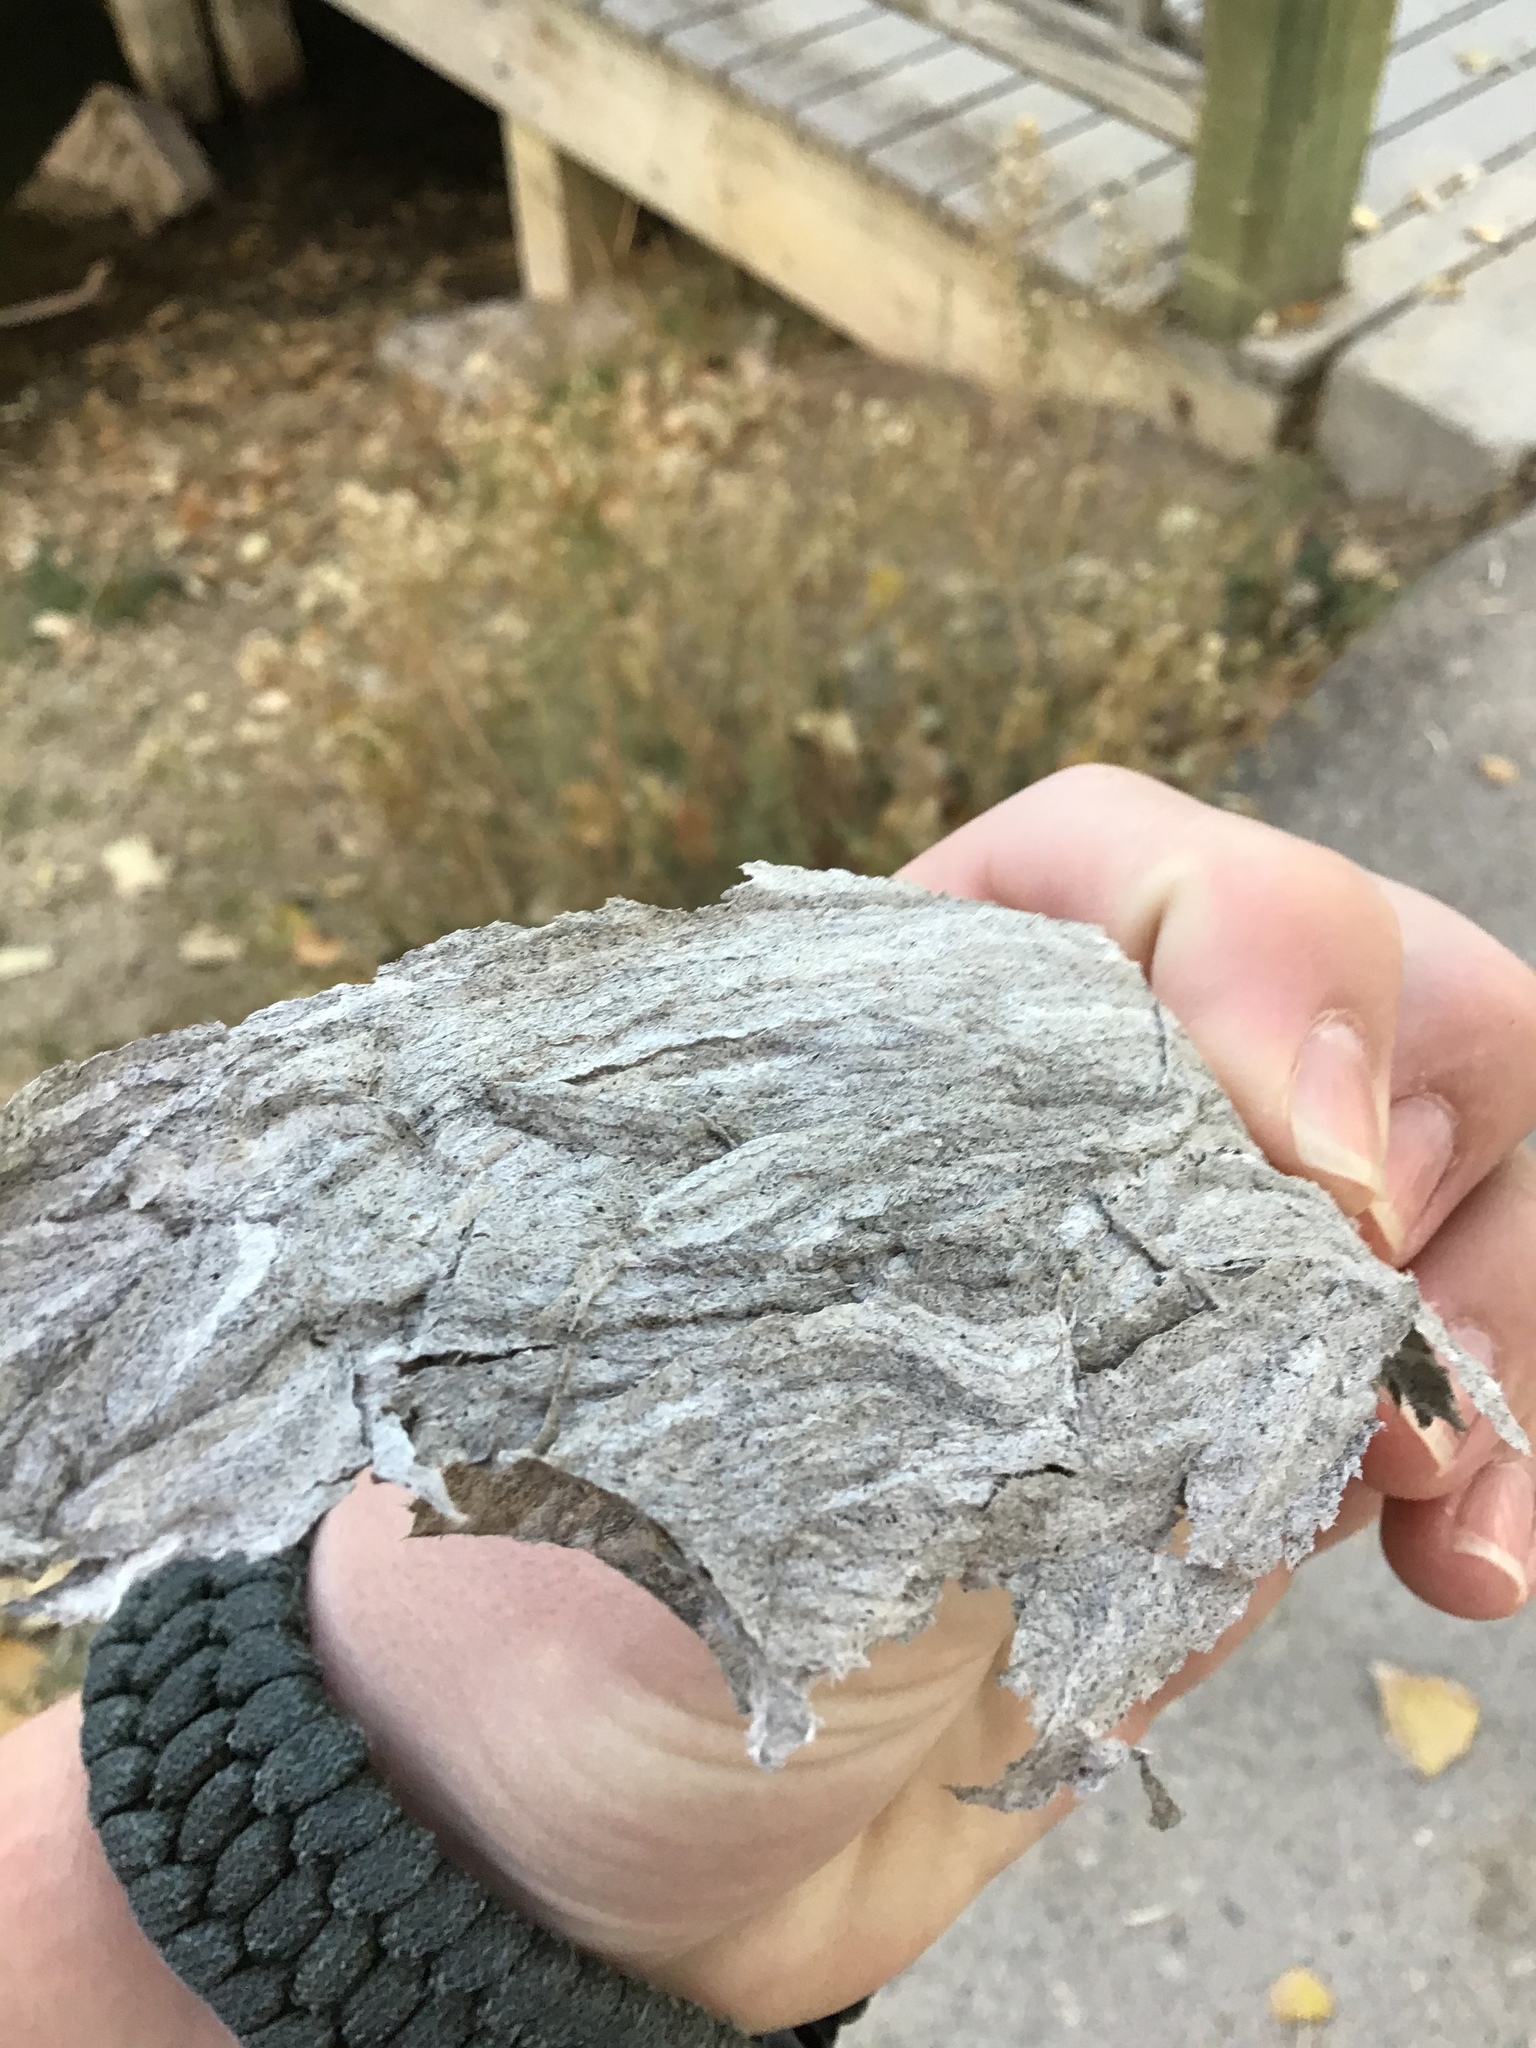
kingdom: Animalia
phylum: Arthropoda
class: Insecta
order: Hymenoptera
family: Vespidae
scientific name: Vespidae
